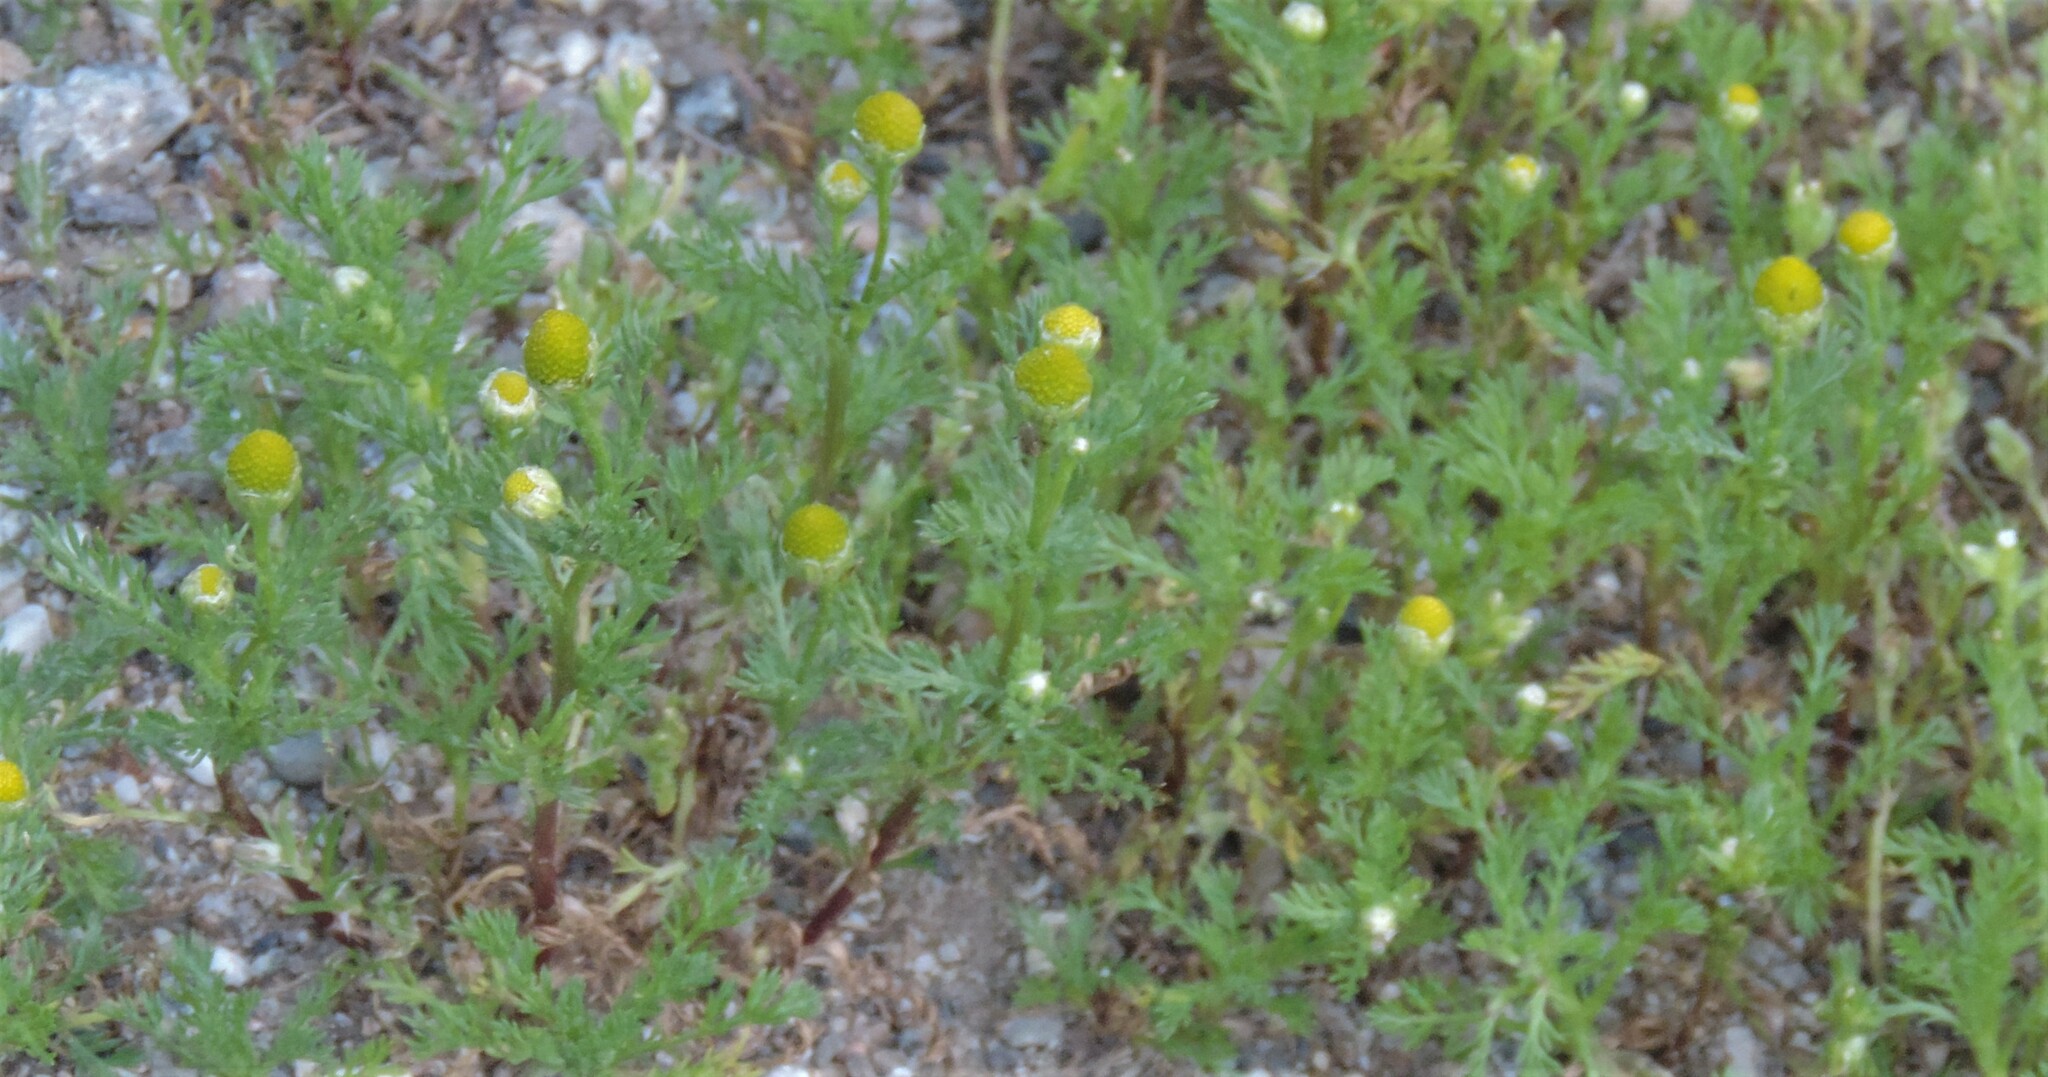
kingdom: Plantae
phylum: Tracheophyta
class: Magnoliopsida
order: Asterales
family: Asteraceae
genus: Matricaria
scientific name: Matricaria discoidea
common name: Disc mayweed
